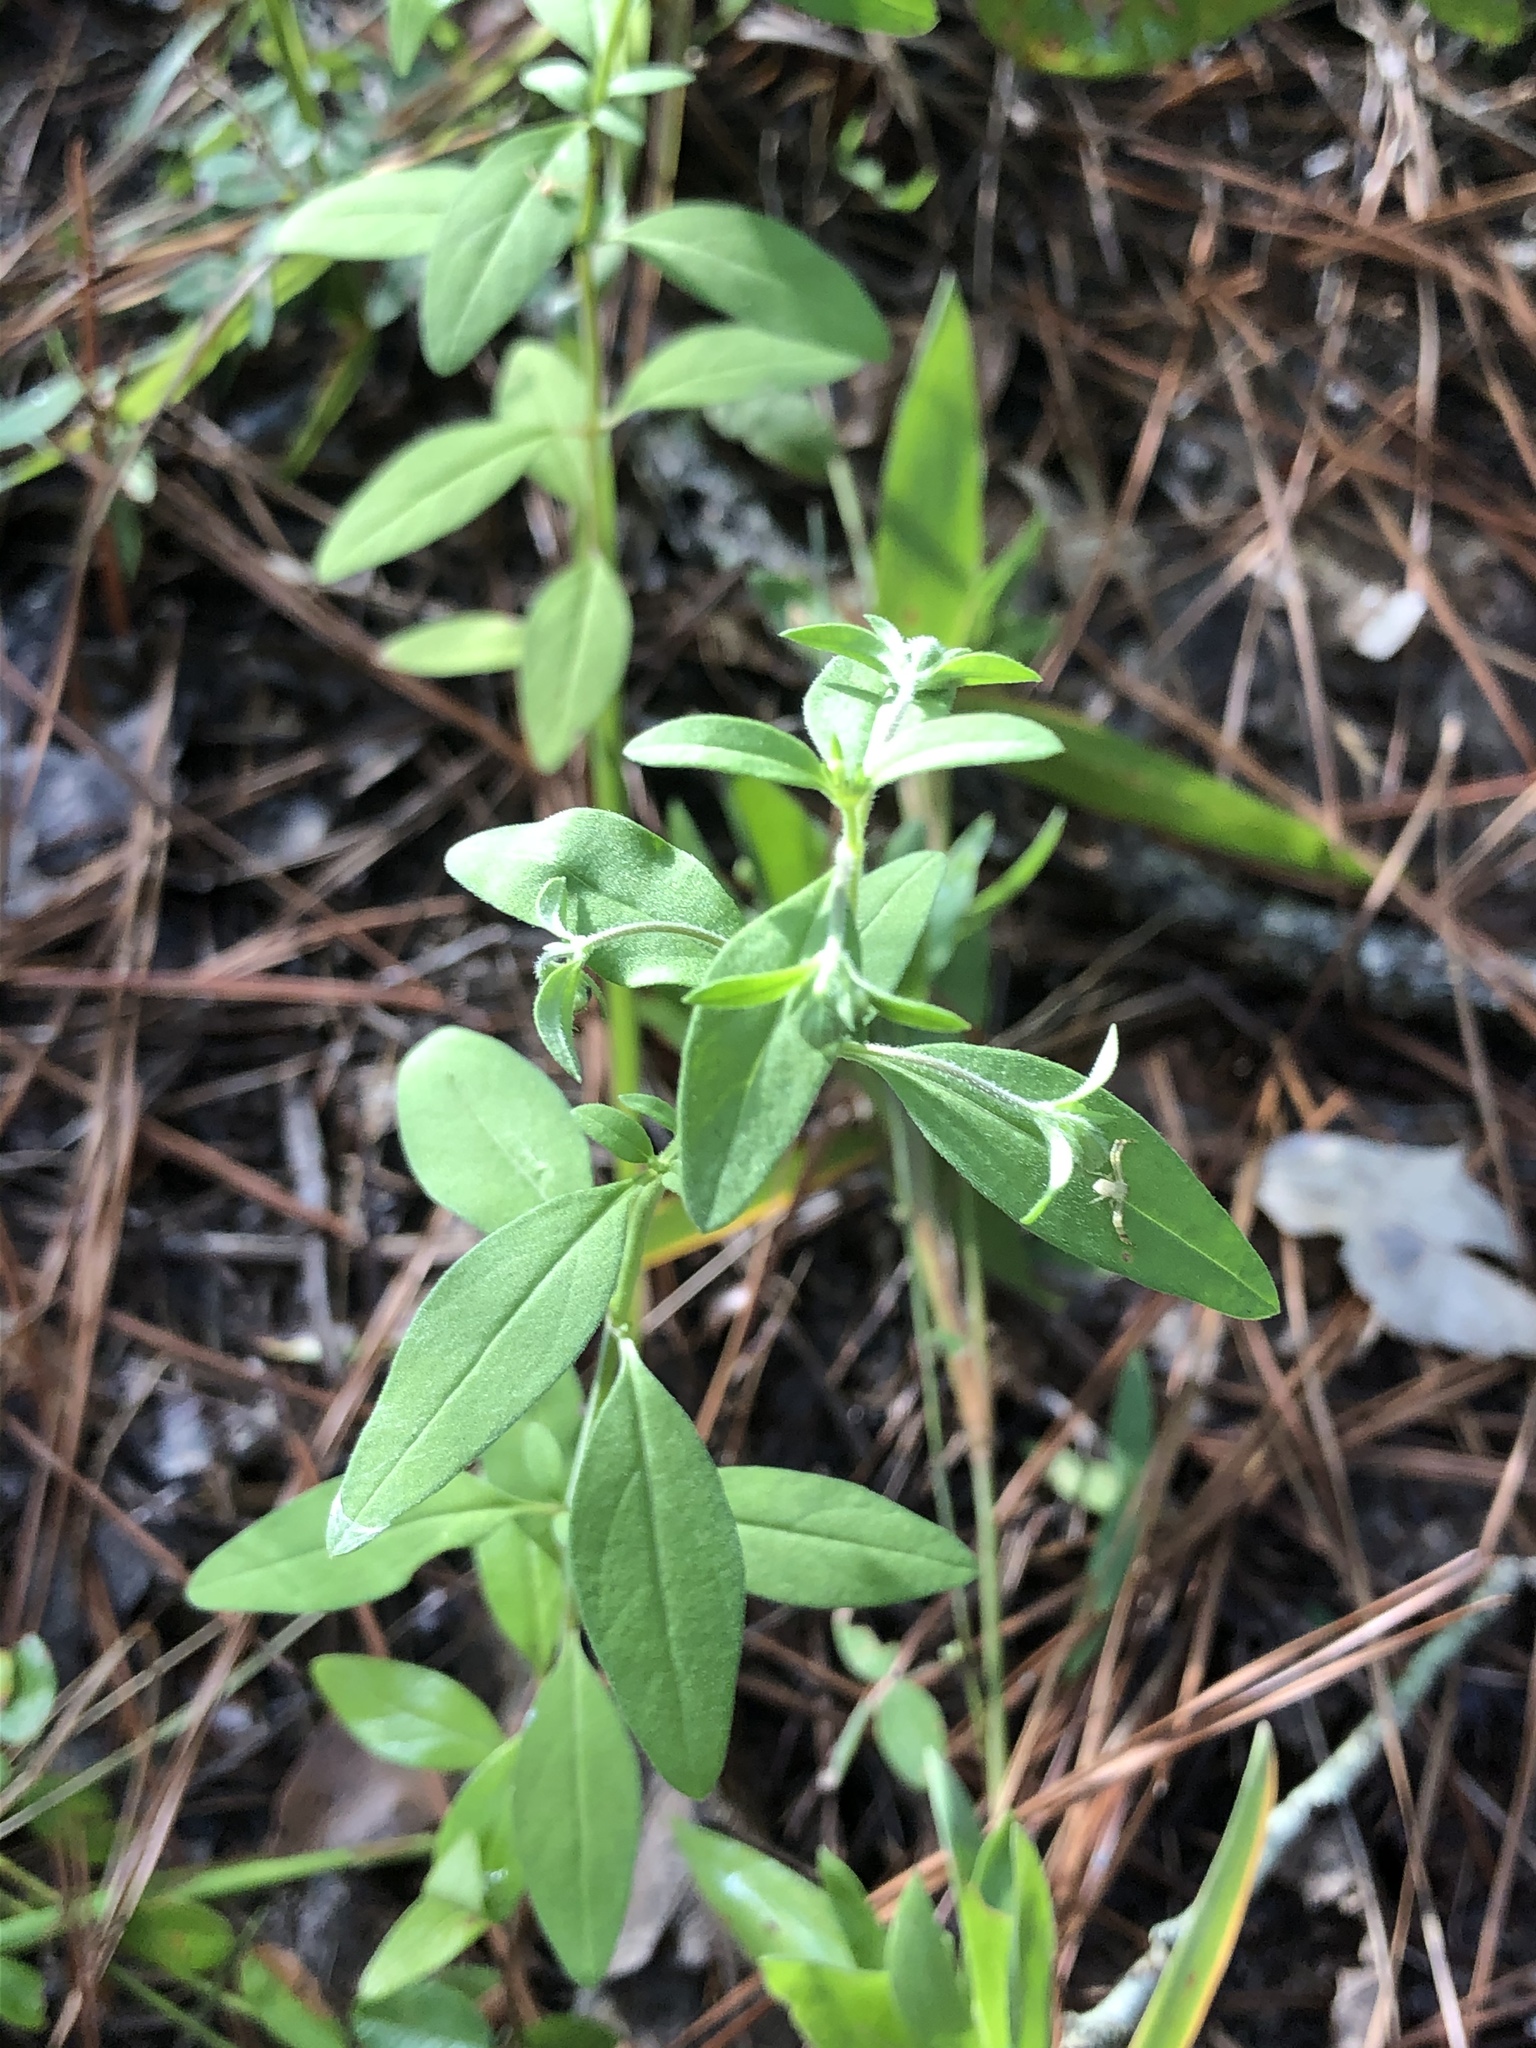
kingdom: Plantae
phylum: Tracheophyta
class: Magnoliopsida
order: Lamiales
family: Lamiaceae
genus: Trichostema
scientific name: Trichostema dichotomum
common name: Bastard pennyroyal
